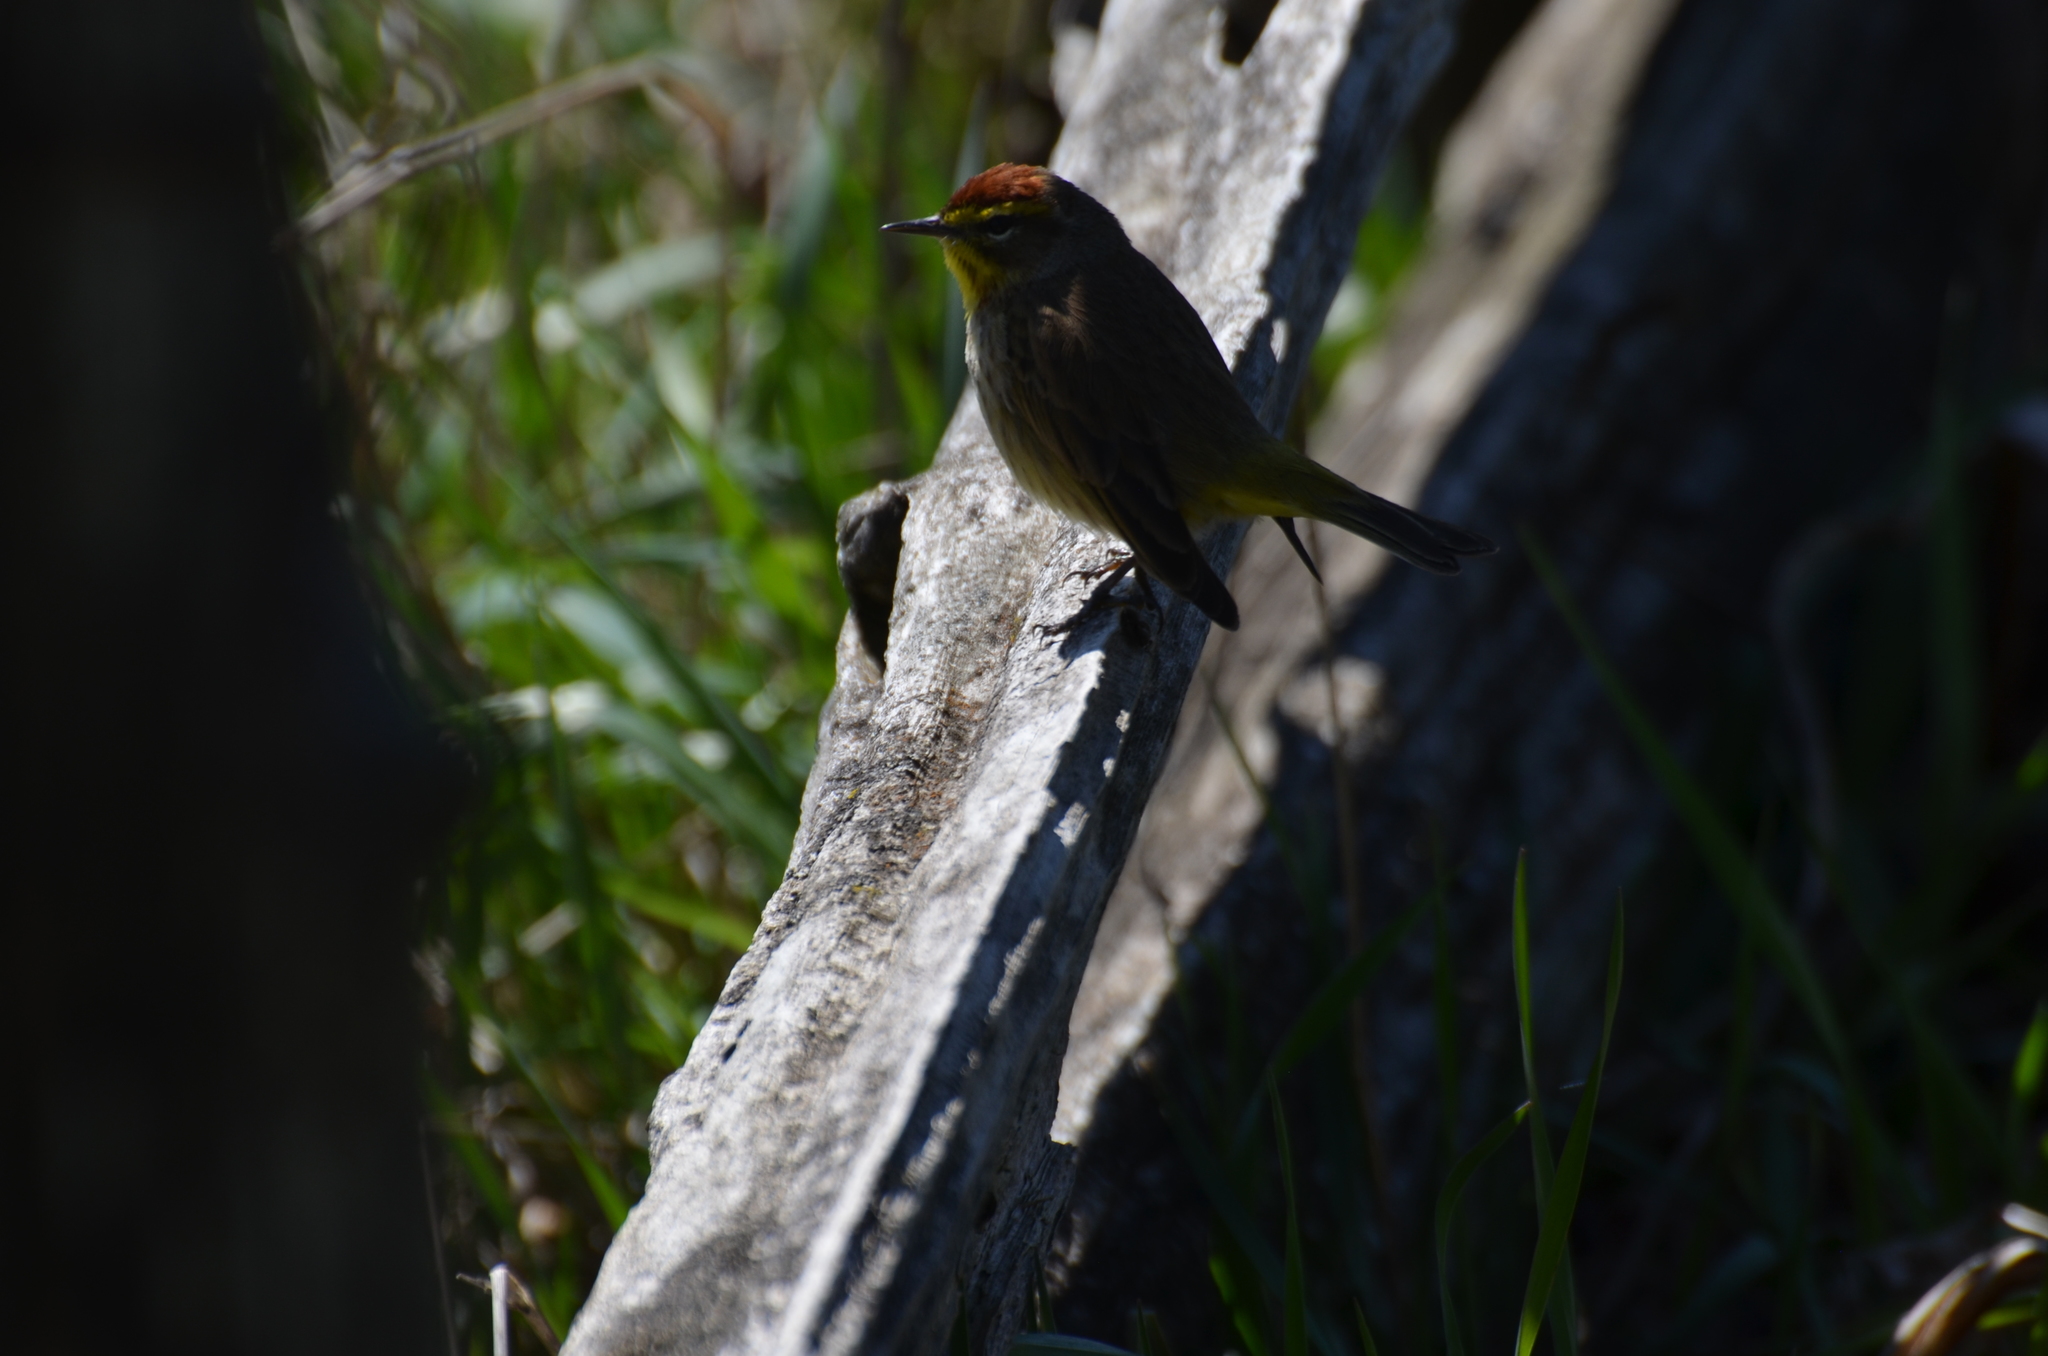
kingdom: Animalia
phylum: Chordata
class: Aves
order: Passeriformes
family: Parulidae
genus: Setophaga
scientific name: Setophaga palmarum
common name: Palm warbler
